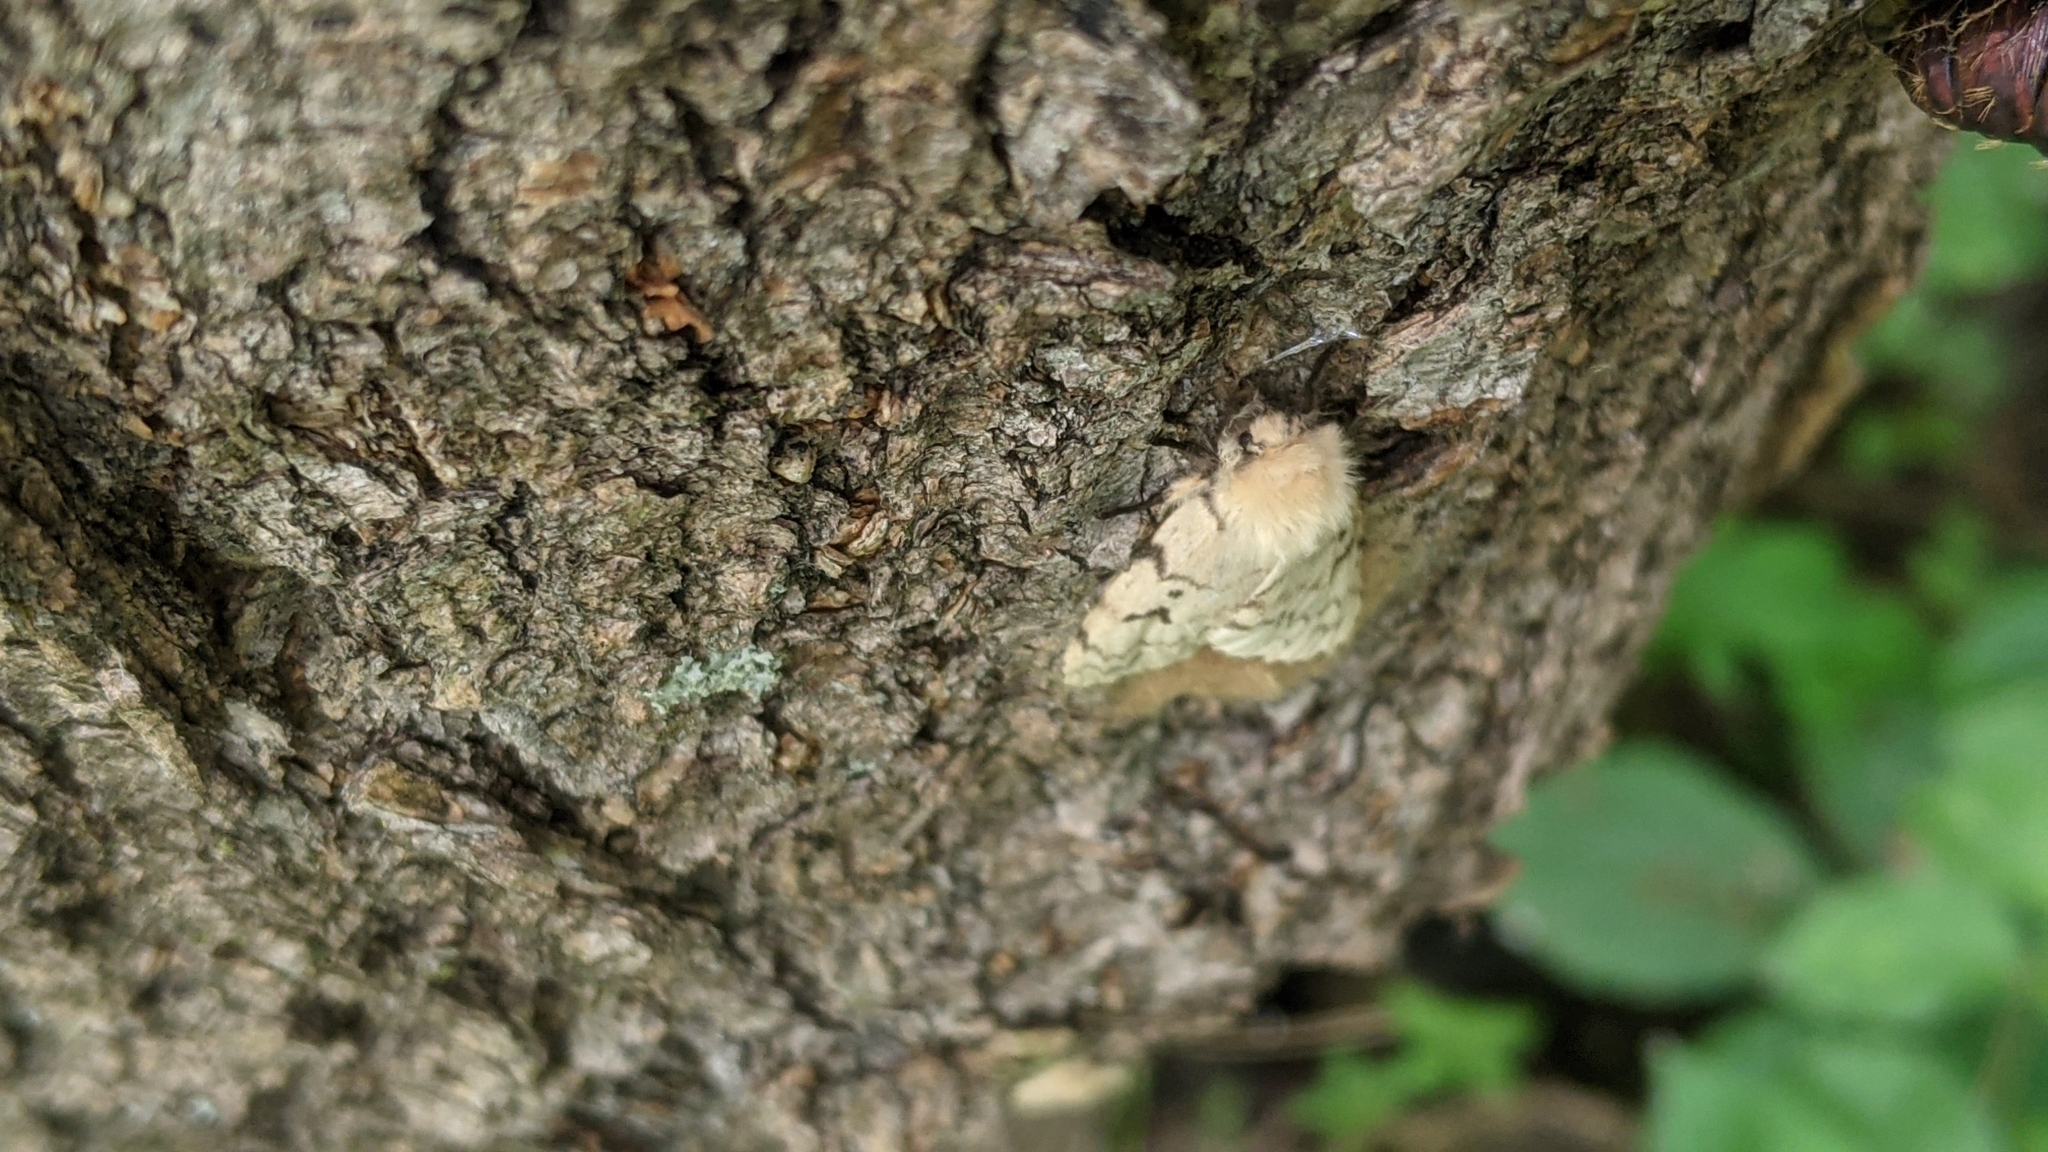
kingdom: Animalia
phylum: Arthropoda
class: Insecta
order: Lepidoptera
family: Erebidae
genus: Lymantria
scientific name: Lymantria dispar
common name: Gypsy moth
